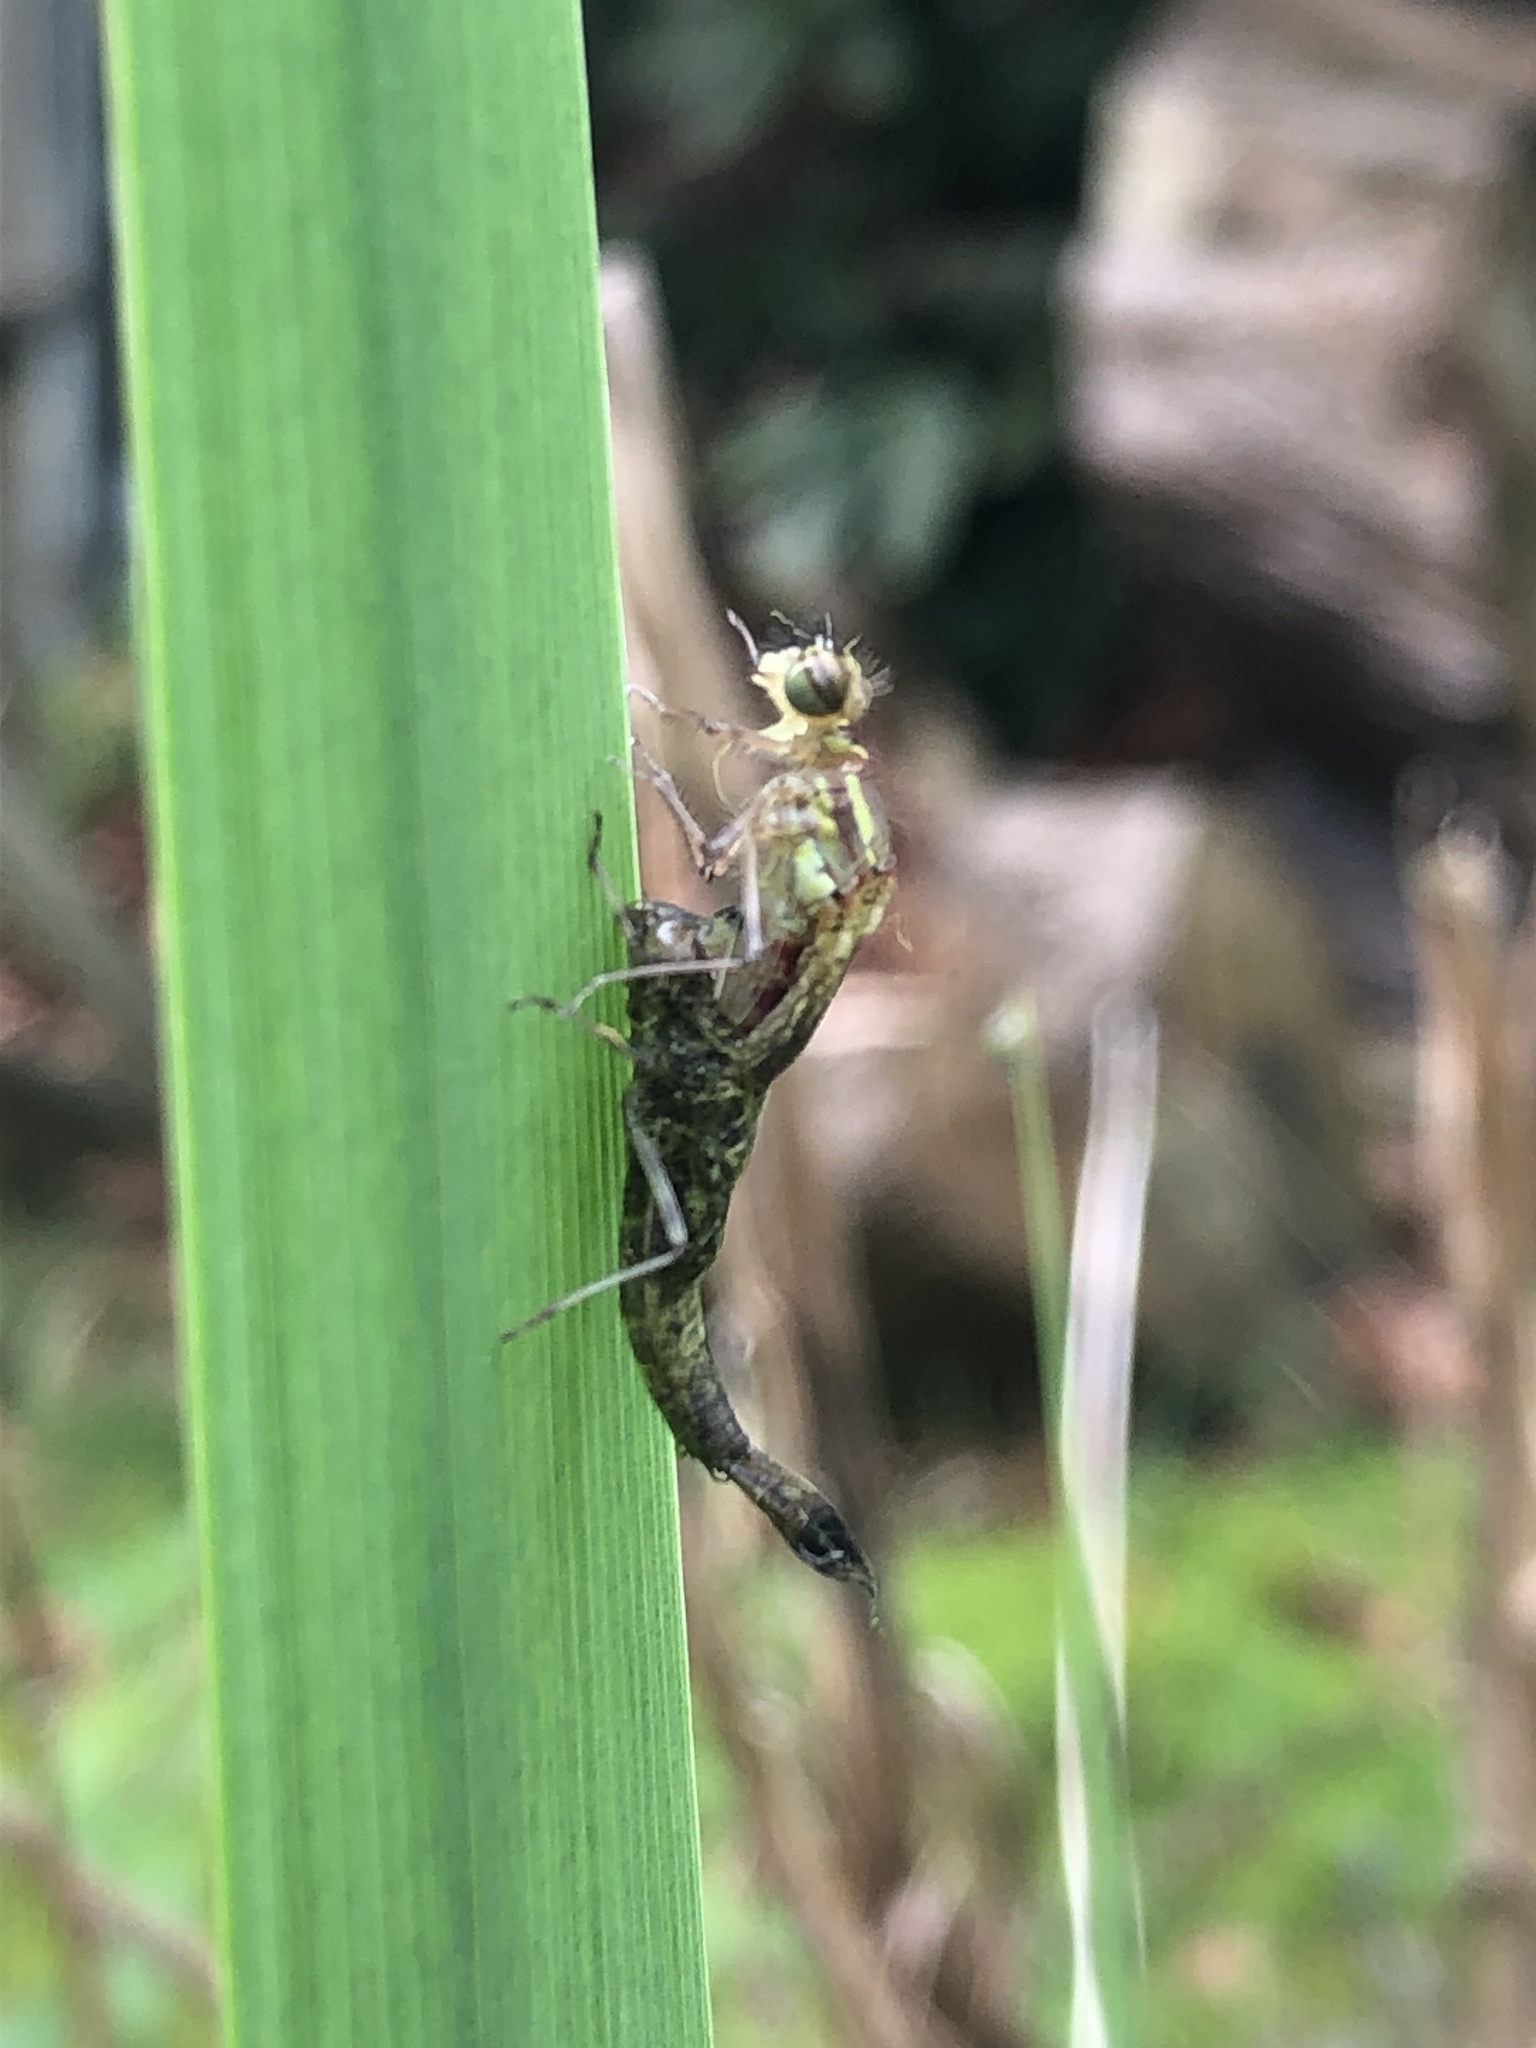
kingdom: Animalia
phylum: Arthropoda
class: Insecta
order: Odonata
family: Coenagrionidae
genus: Pyrrhosoma
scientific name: Pyrrhosoma nymphula
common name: Large red damsel
